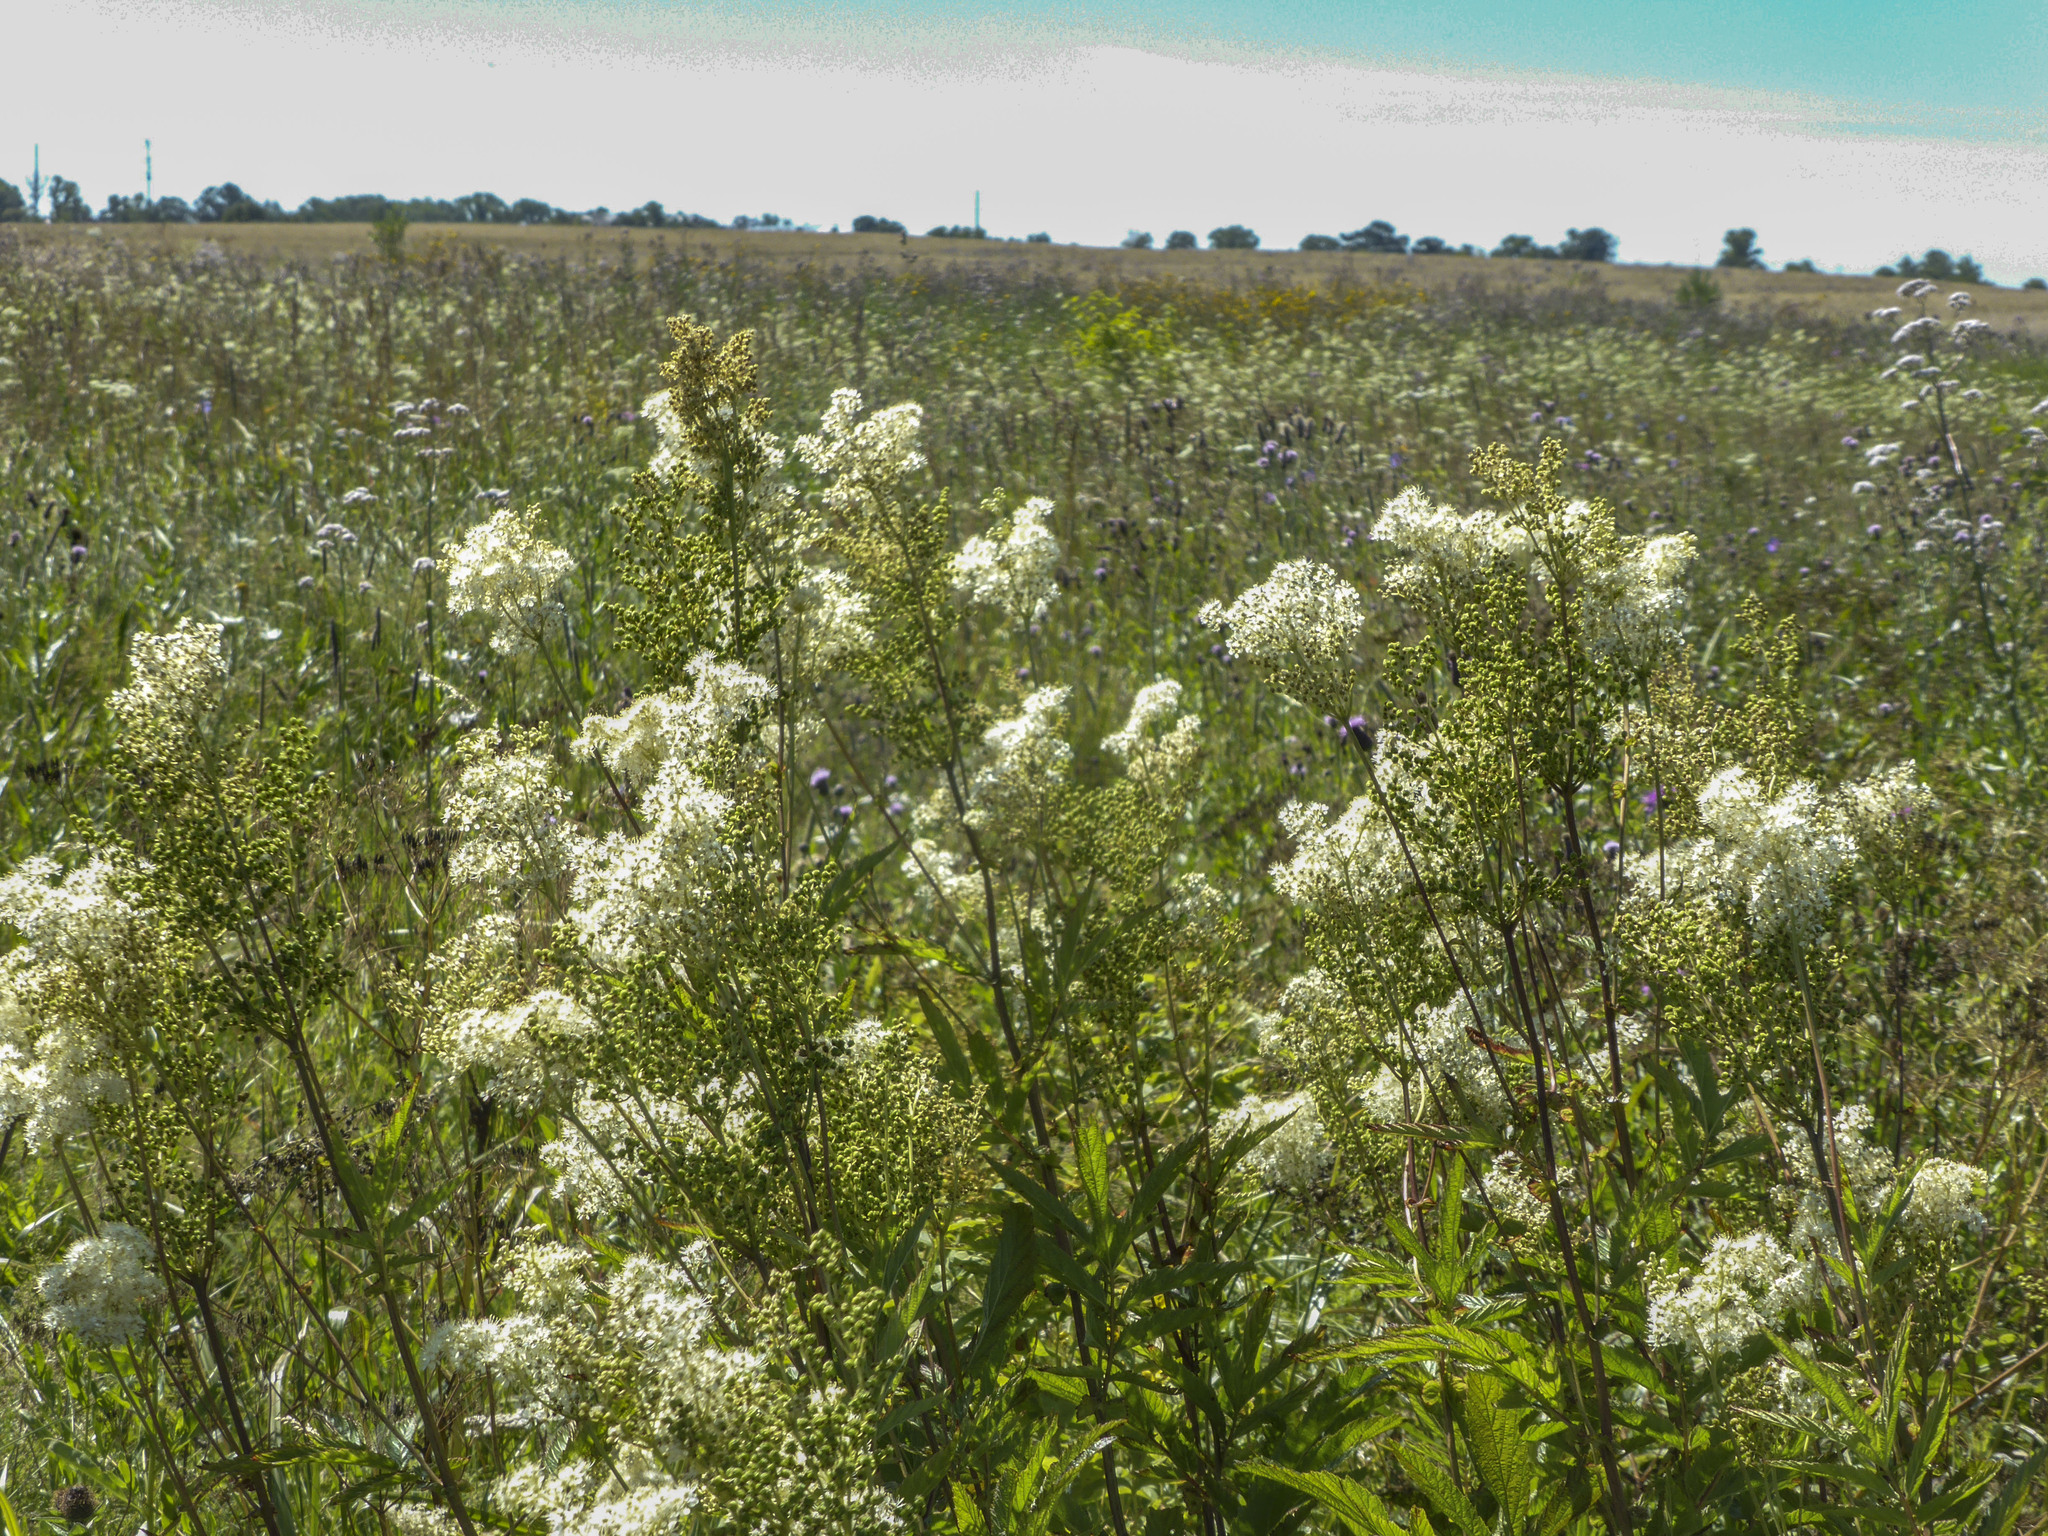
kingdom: Plantae
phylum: Tracheophyta
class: Magnoliopsida
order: Rosales
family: Rosaceae
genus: Filipendula
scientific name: Filipendula ulmaria
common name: Meadowsweet
